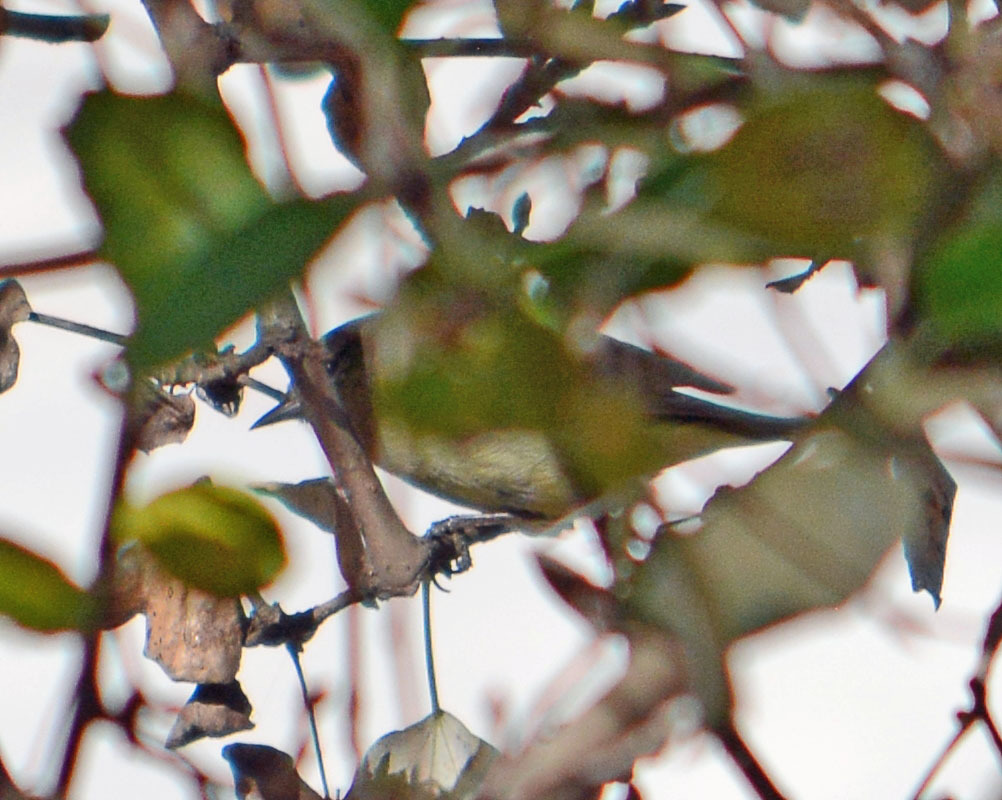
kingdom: Animalia
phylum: Chordata
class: Aves
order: Passeriformes
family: Parulidae
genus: Leiothlypis
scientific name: Leiothlypis celata
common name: Orange-crowned warbler
